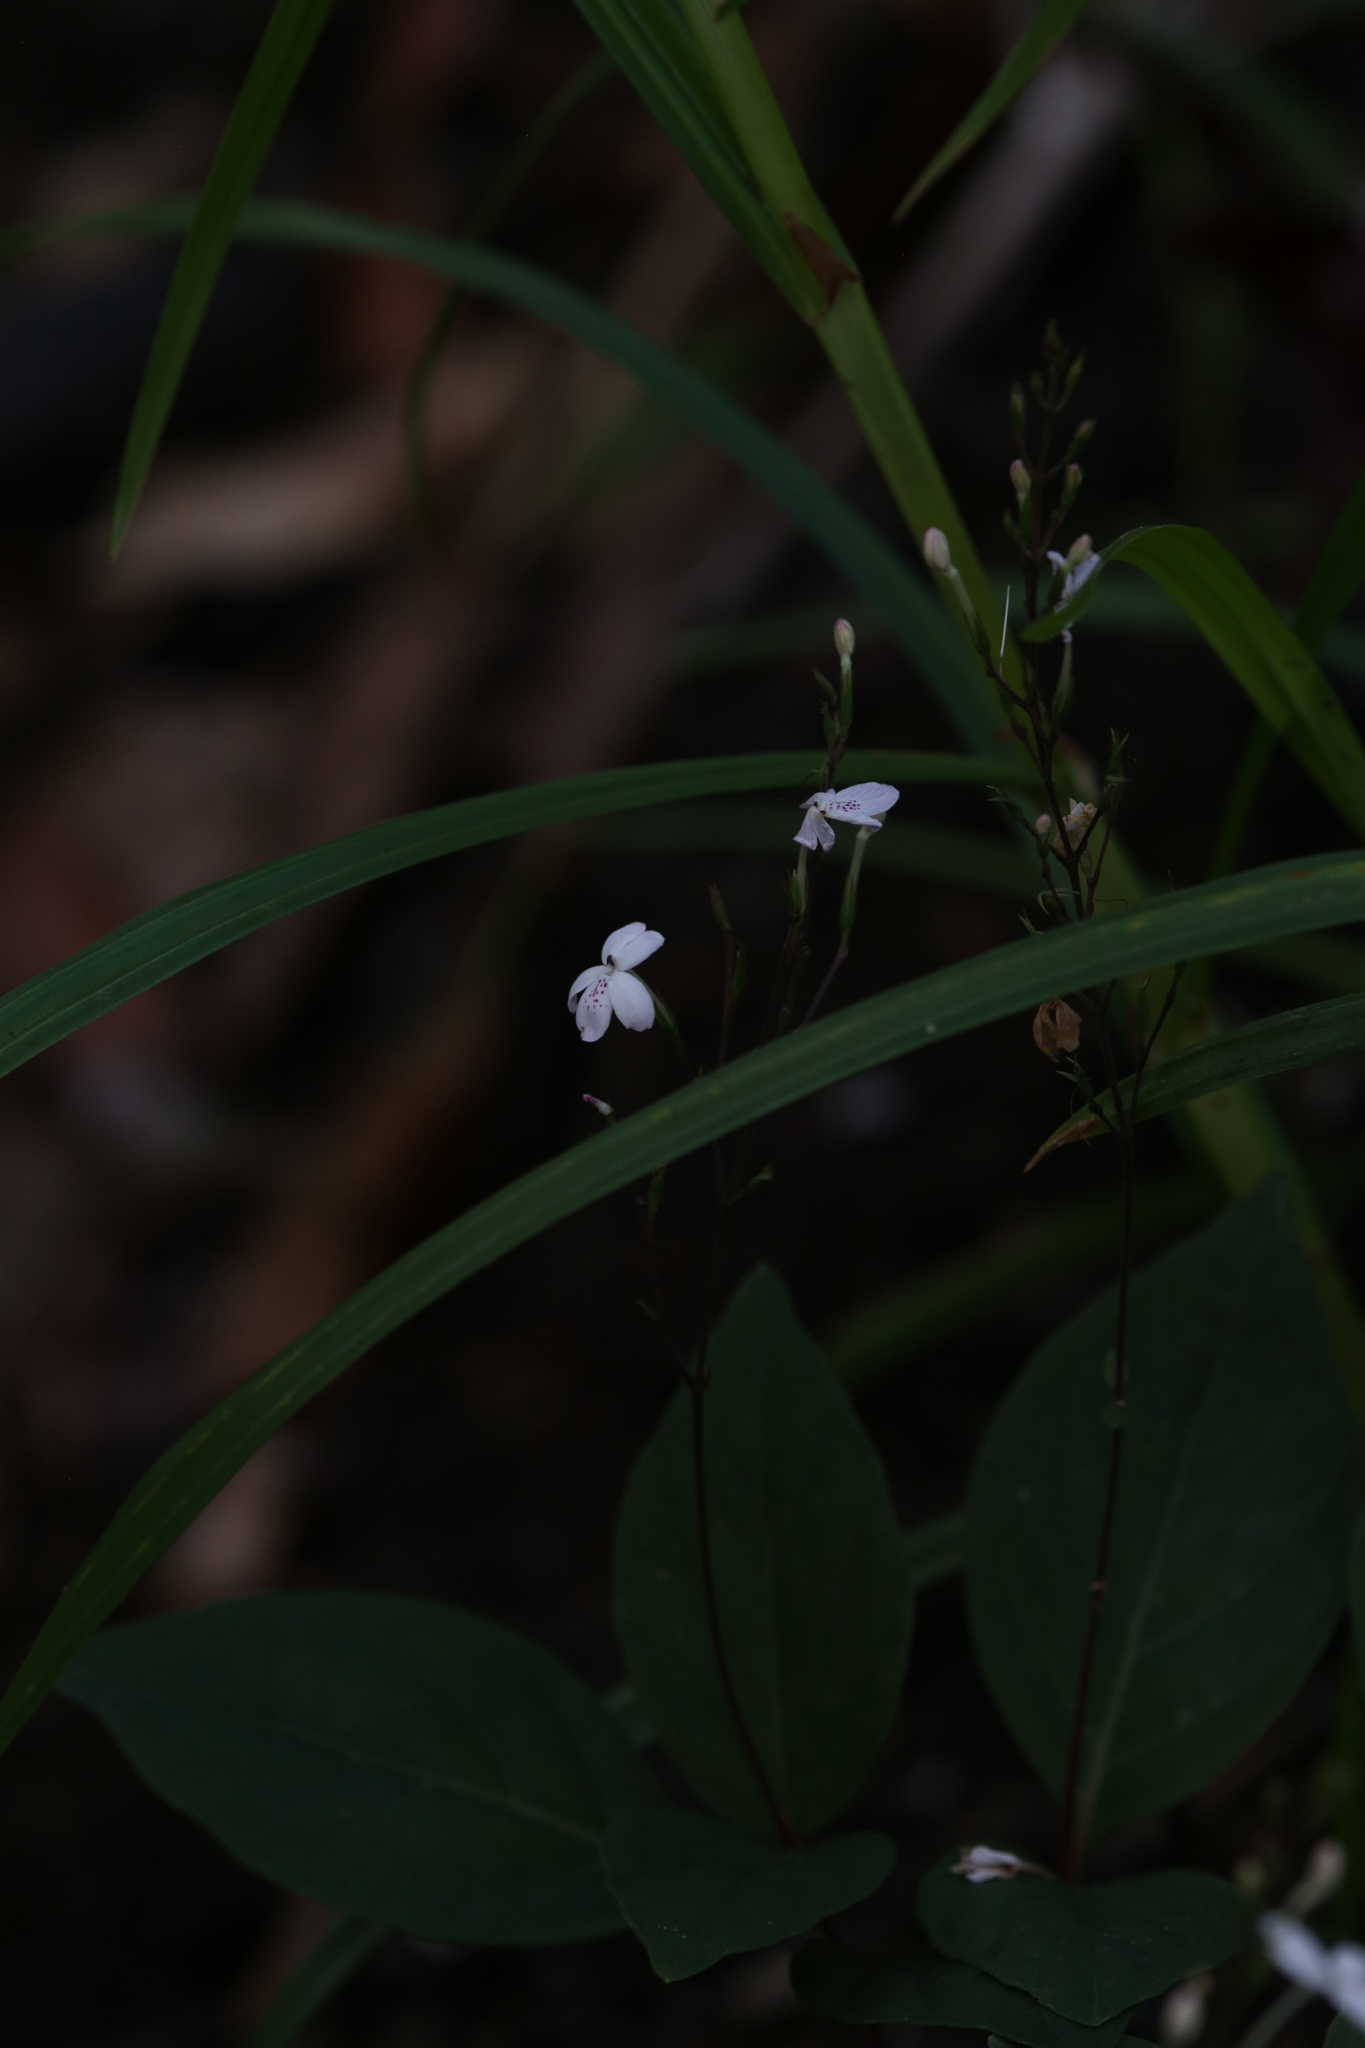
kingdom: Plantae
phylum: Tracheophyta
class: Magnoliopsida
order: Lamiales
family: Acanthaceae
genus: Pseuderanthemum
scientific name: Pseuderanthemum variabile
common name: Night and afternoon
